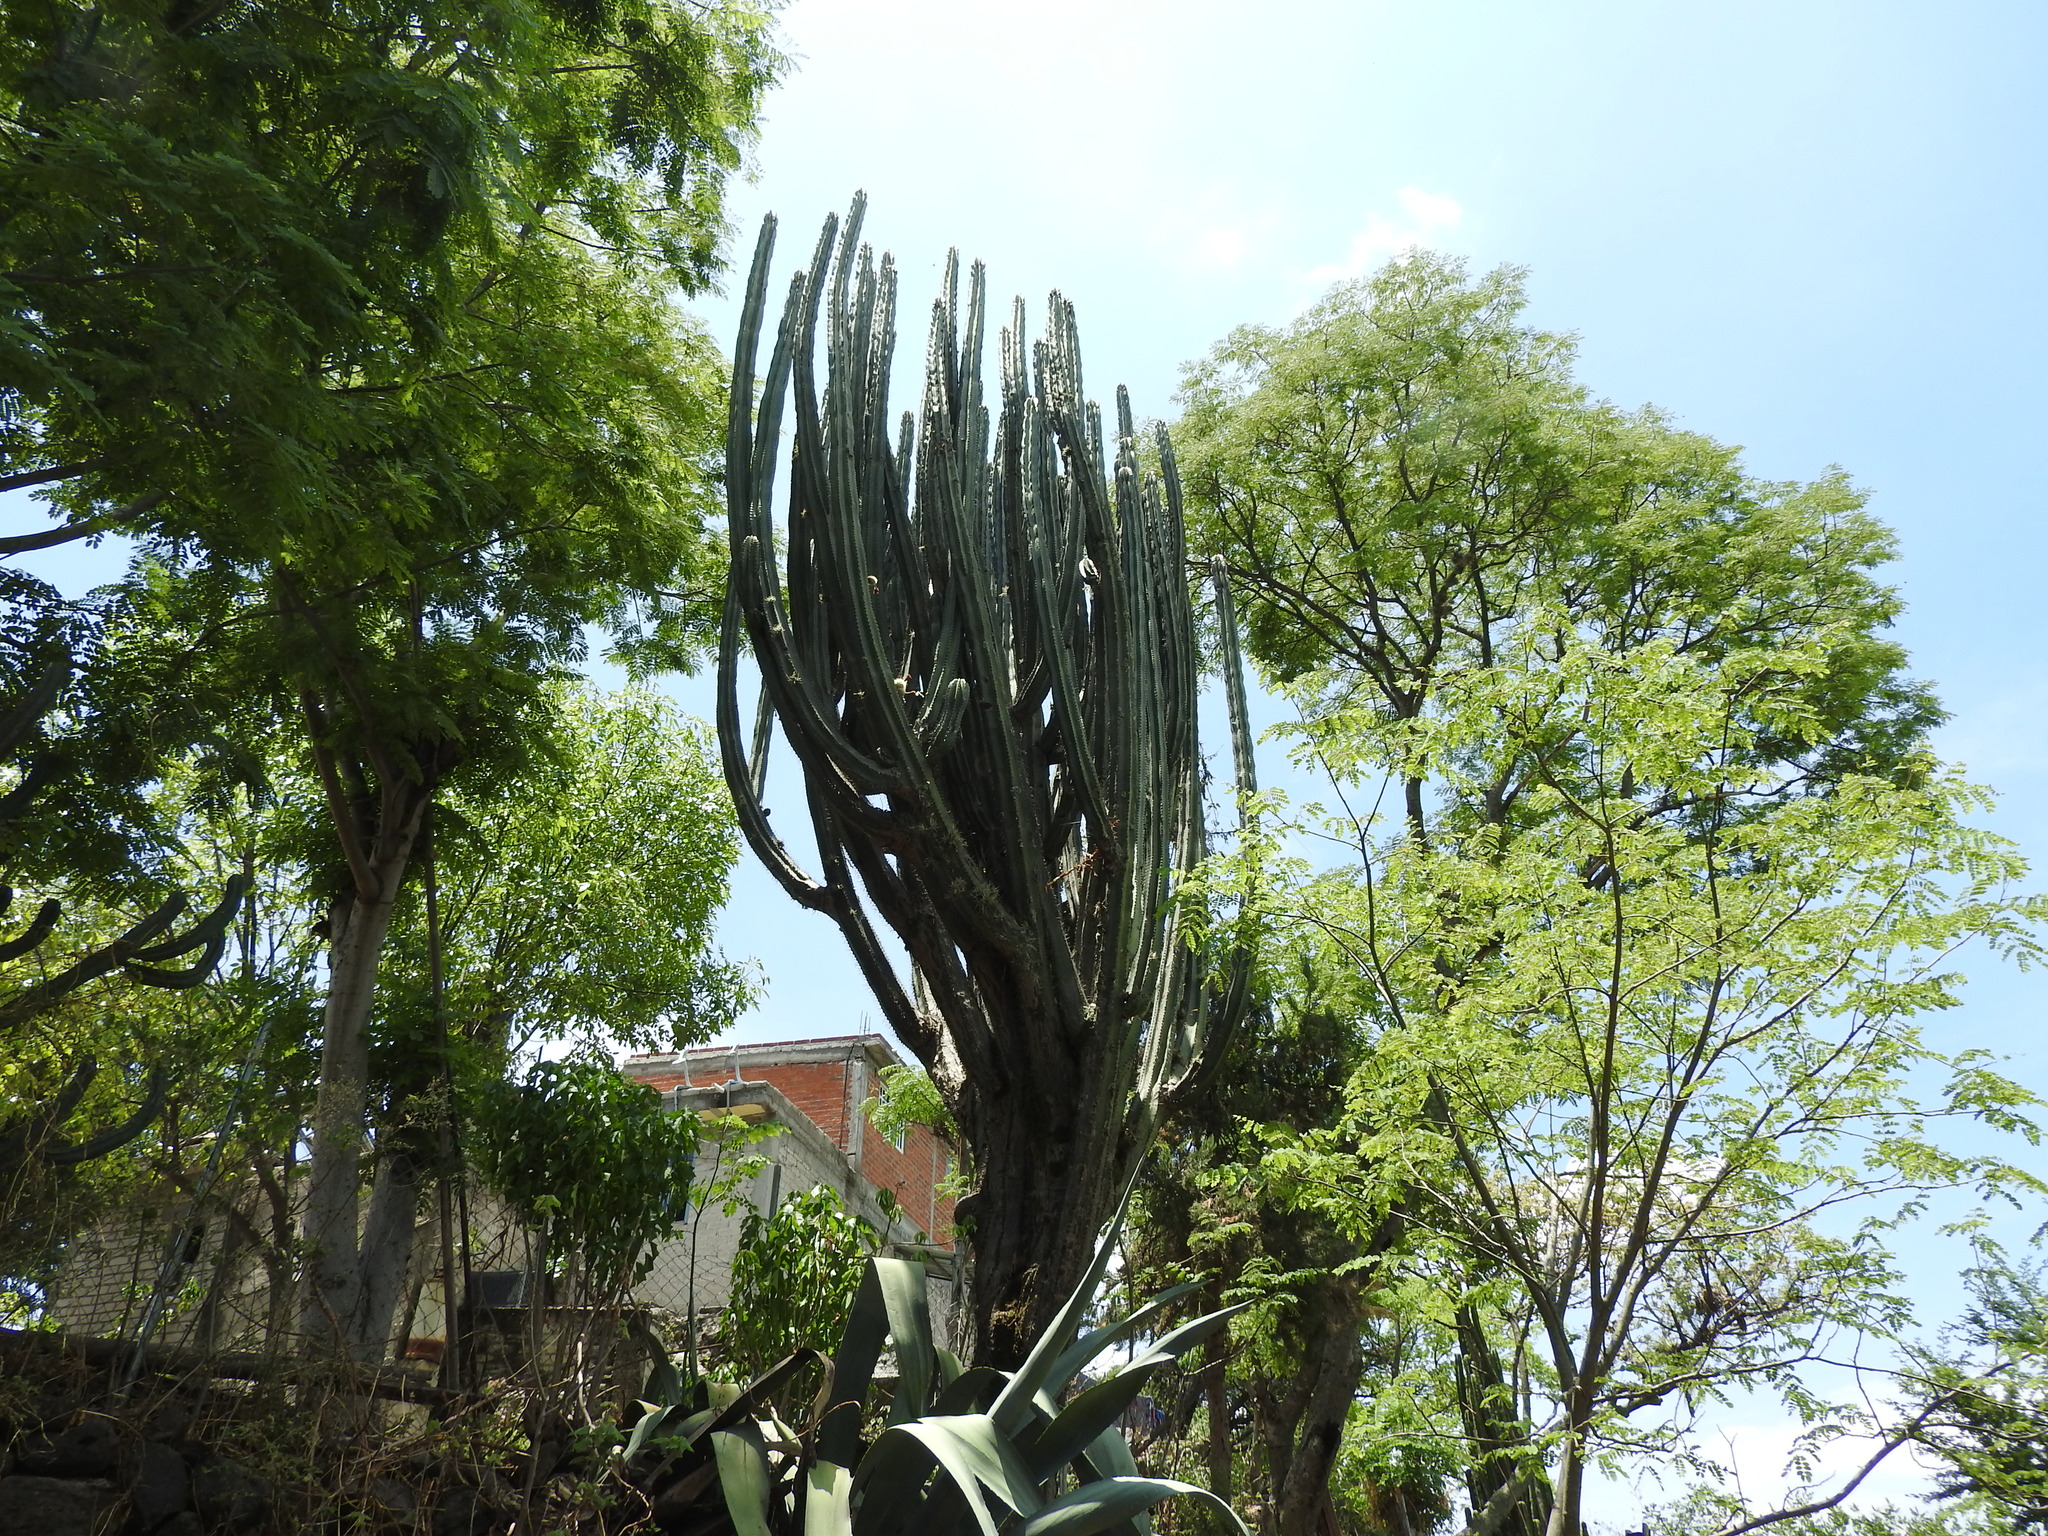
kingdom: Plantae
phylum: Tracheophyta
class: Magnoliopsida
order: Caryophyllales
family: Cactaceae
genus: Stenocereus
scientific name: Stenocereus queretaroensis
